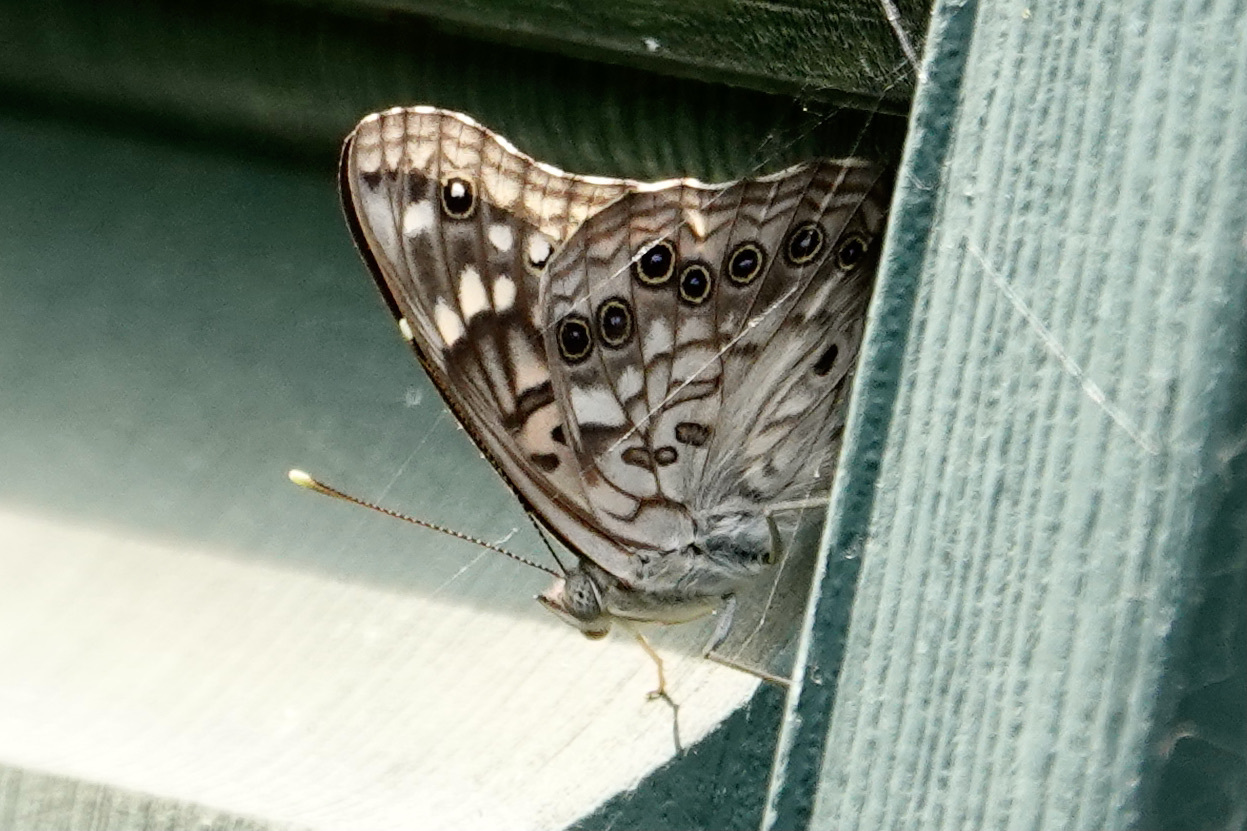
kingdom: Animalia
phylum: Arthropoda
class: Insecta
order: Lepidoptera
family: Nymphalidae
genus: Asterocampa
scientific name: Asterocampa celtis
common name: Hackberry emperor
